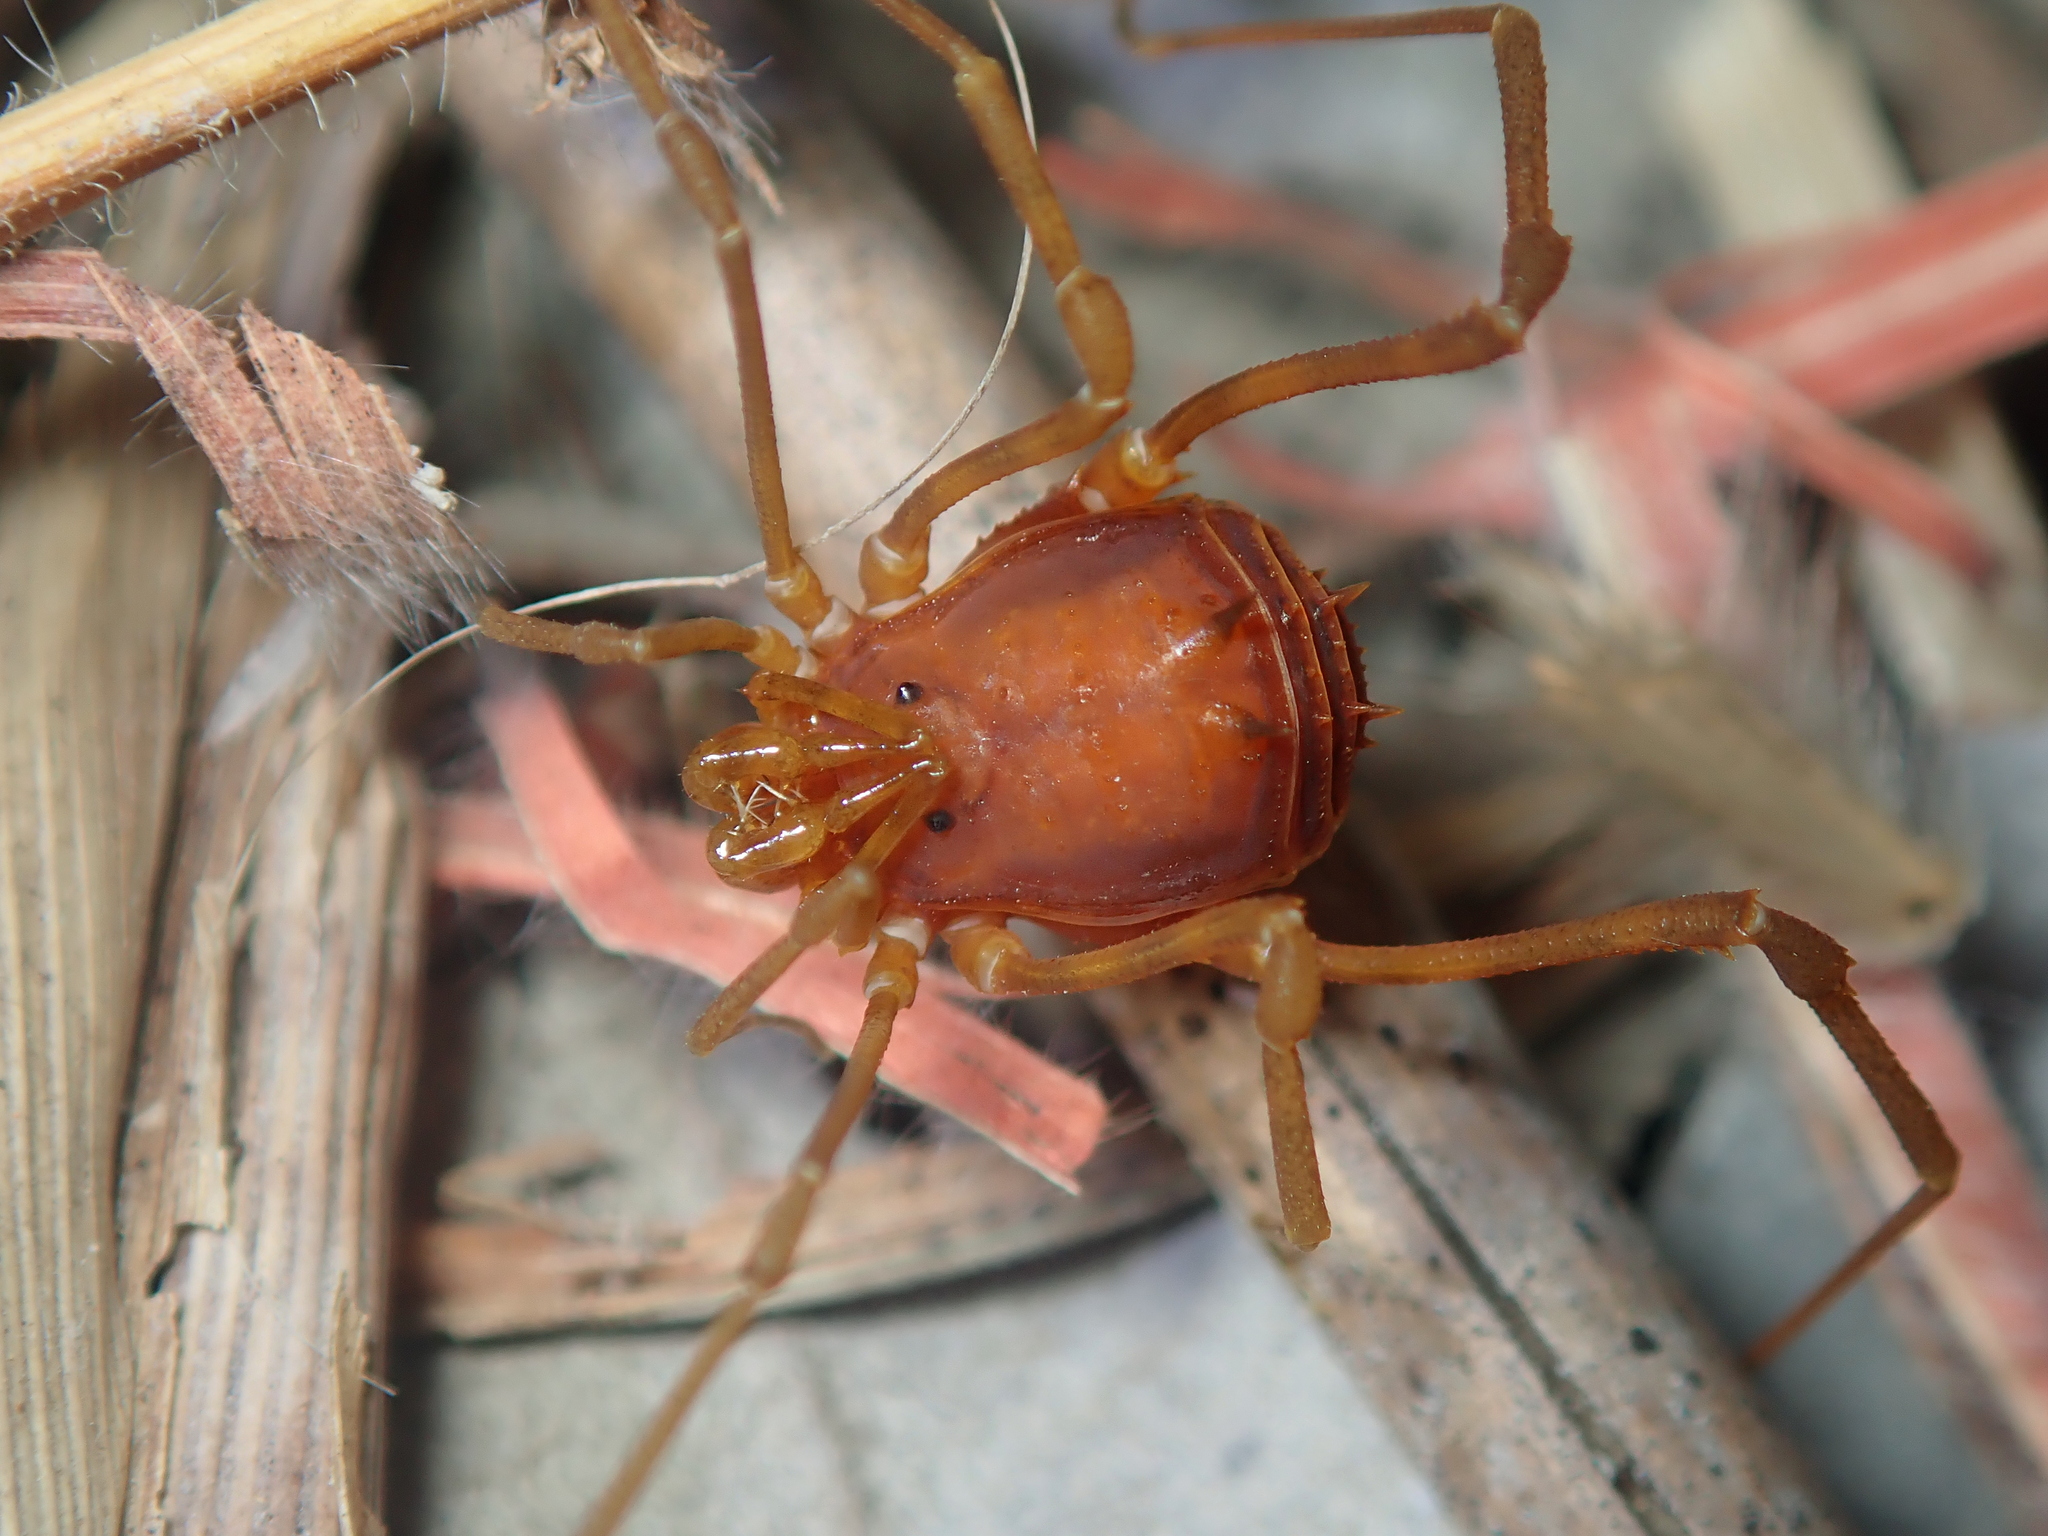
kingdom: Animalia
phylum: Arthropoda
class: Arachnida
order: Opiliones
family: Stygnidae
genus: Stygnus
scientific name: Stygnus polyacanthus
